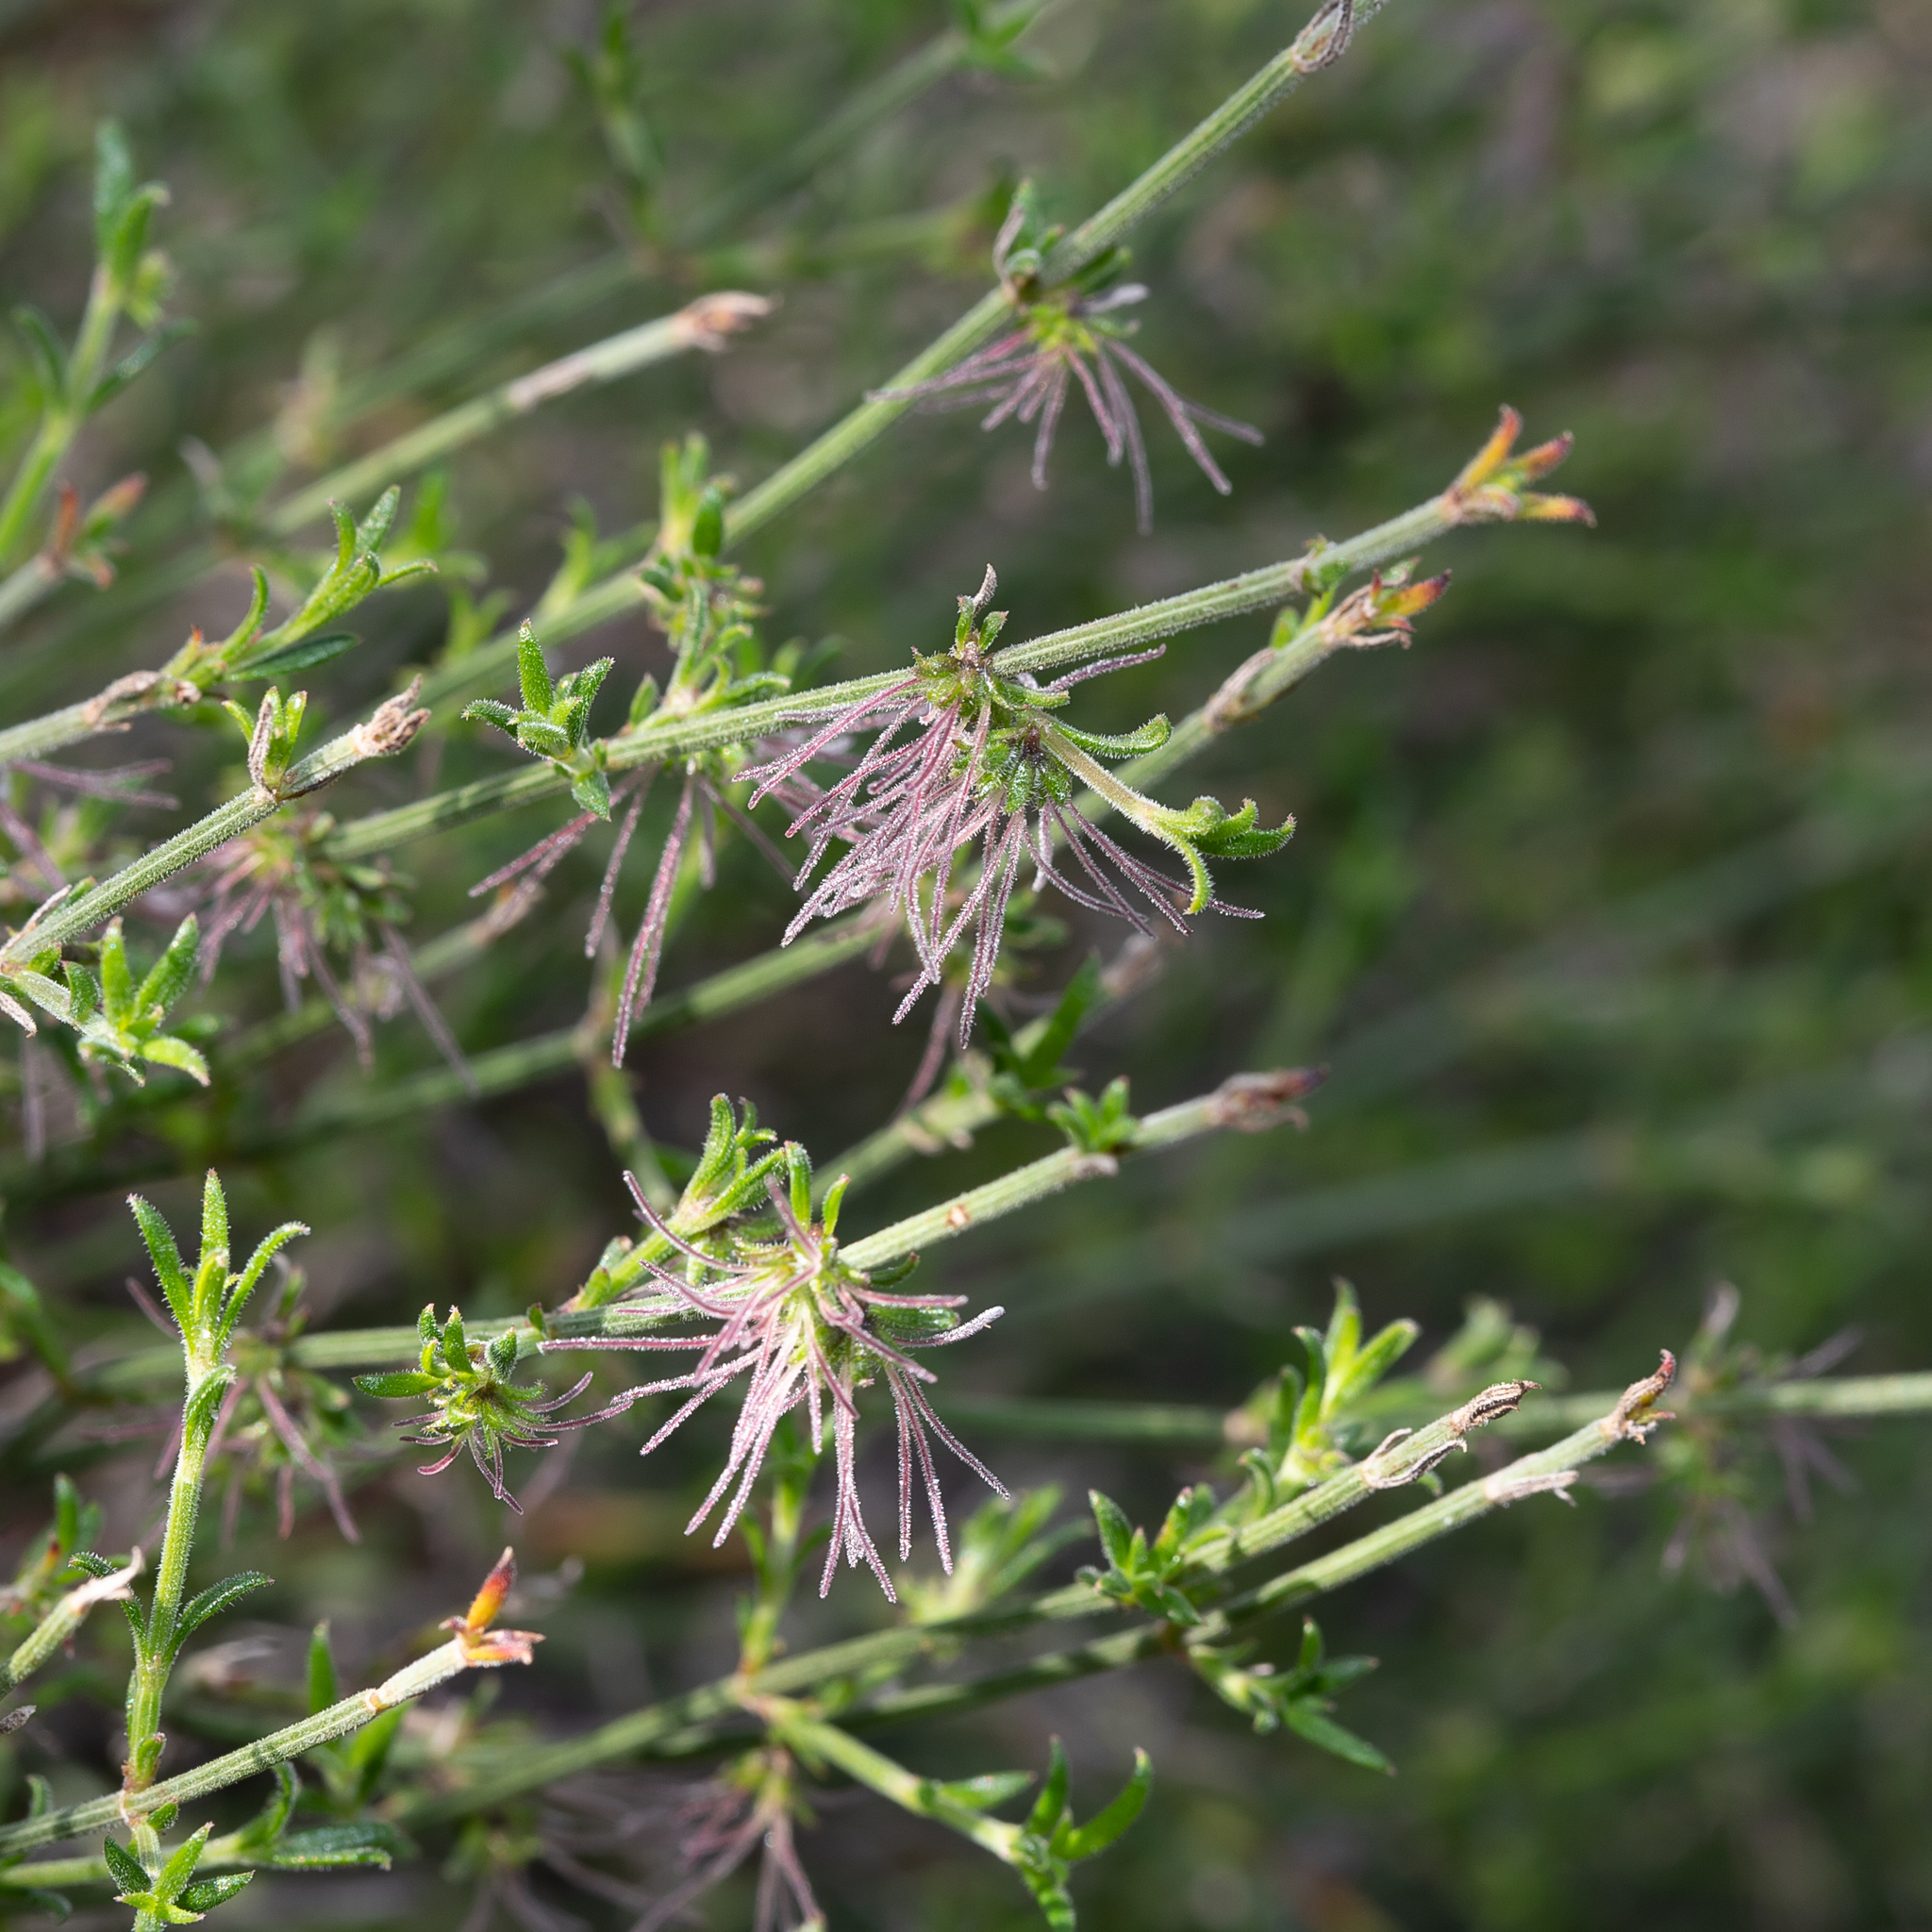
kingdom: Plantae
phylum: Tracheophyta
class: Magnoliopsida
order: Gentianales
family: Rubiaceae
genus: Opercularia
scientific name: Opercularia turpis
